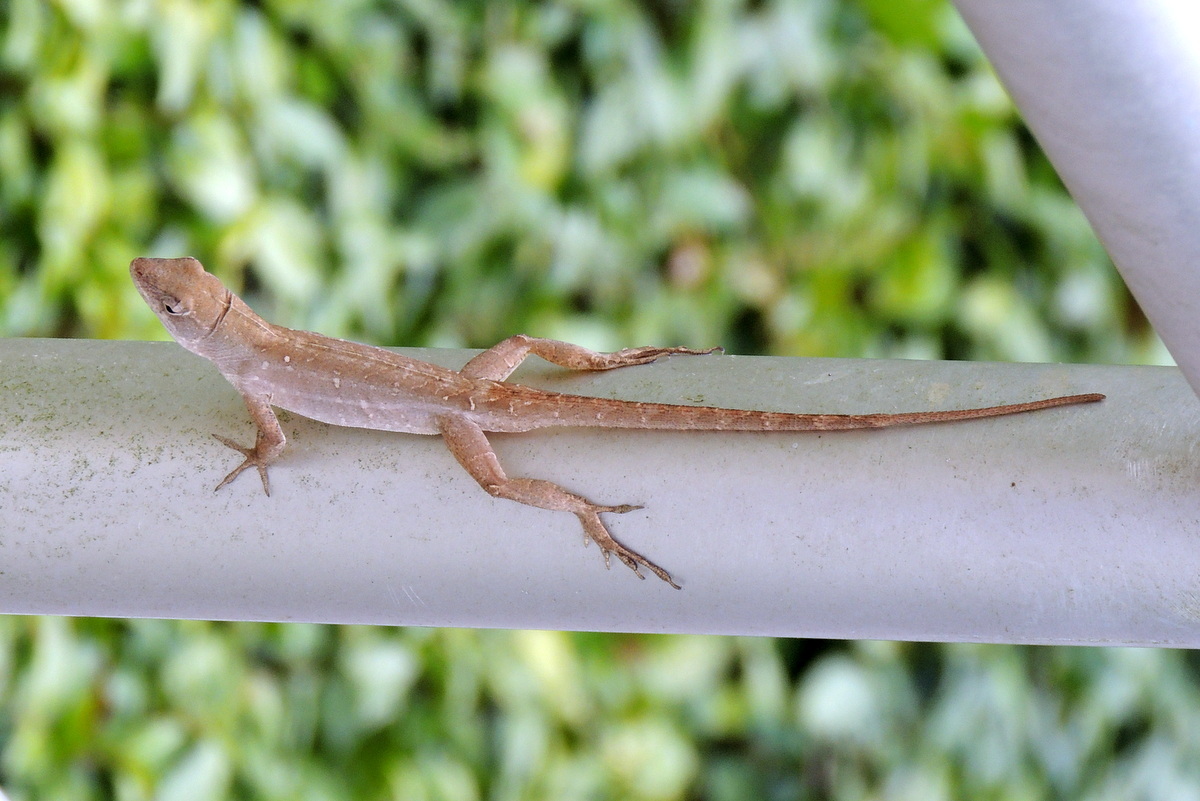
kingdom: Animalia
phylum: Chordata
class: Squamata
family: Dactyloidae
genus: Anolis
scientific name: Anolis sagrei
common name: Brown anole
